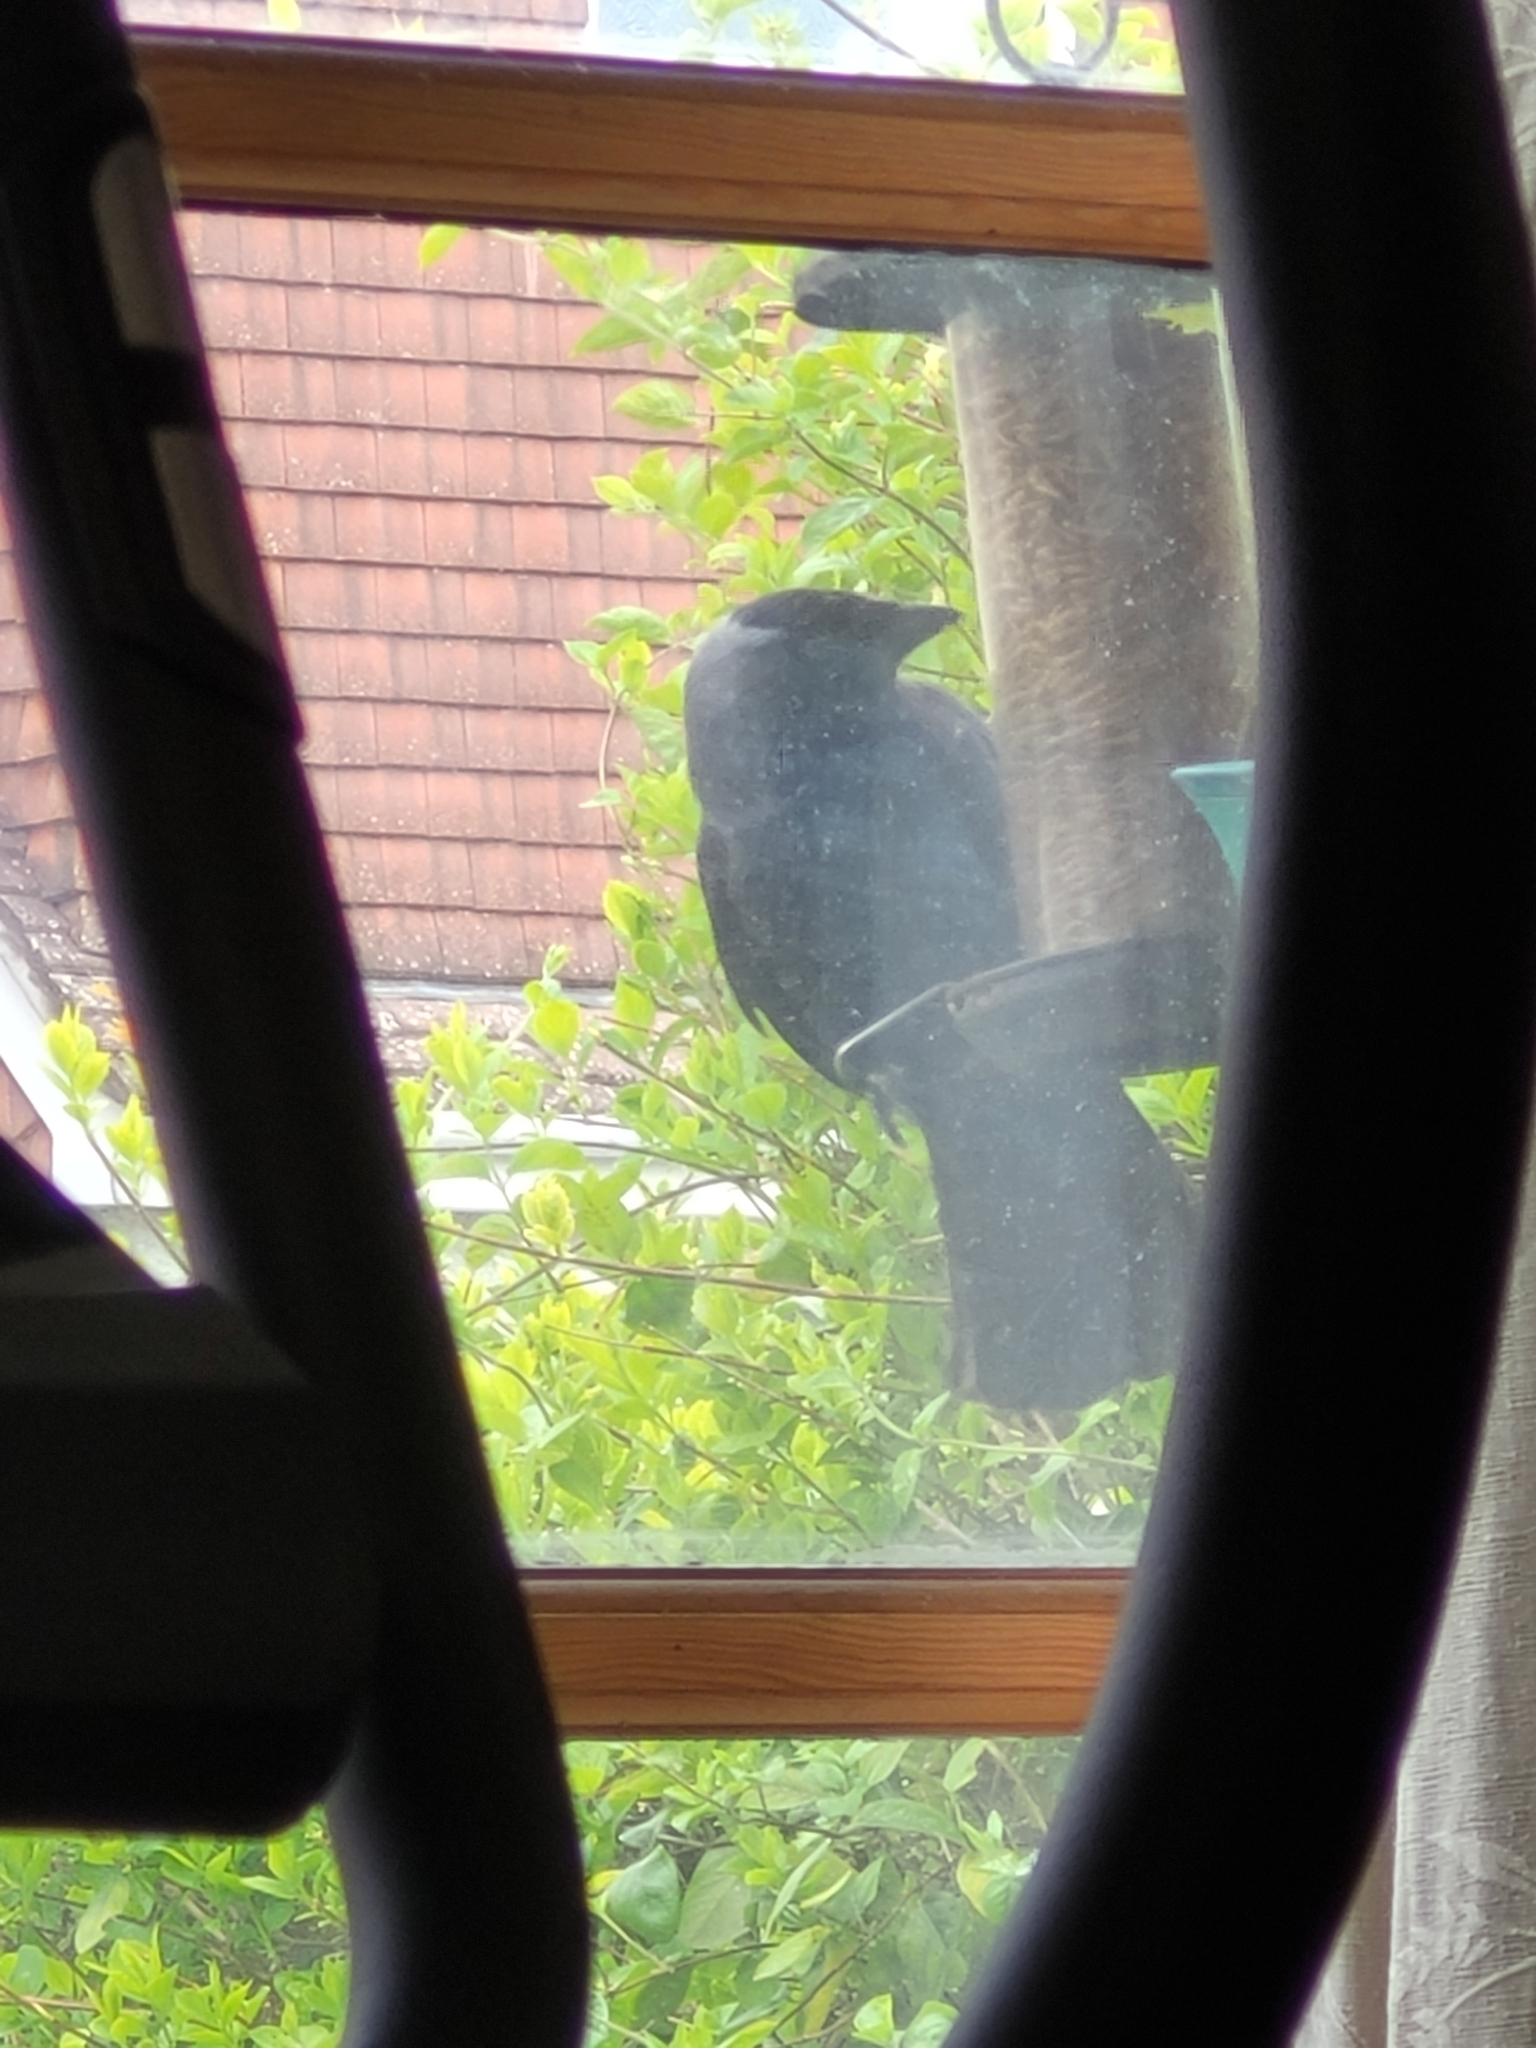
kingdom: Animalia
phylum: Chordata
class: Aves
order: Passeriformes
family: Corvidae
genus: Coloeus
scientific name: Coloeus monedula
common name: Western jackdaw
